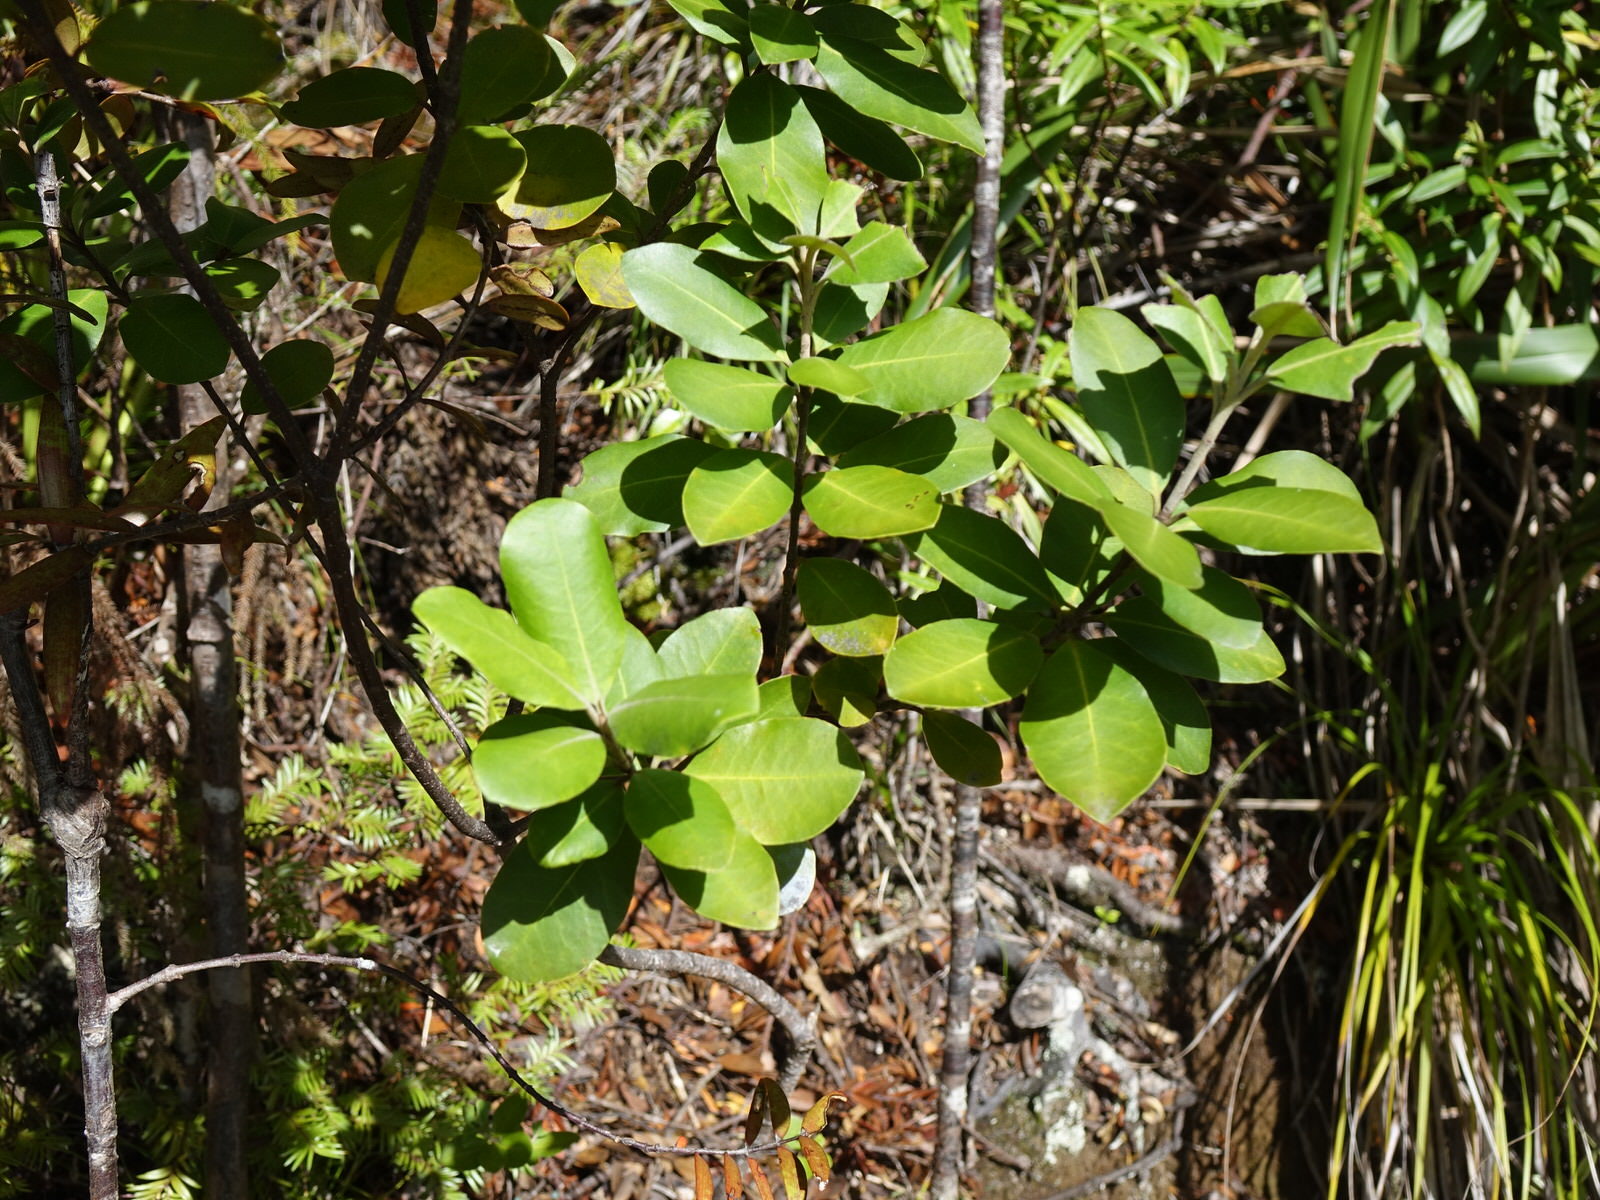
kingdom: Plantae
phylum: Tracheophyta
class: Magnoliopsida
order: Apiales
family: Pittosporaceae
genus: Pittosporum
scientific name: Pittosporum ellipticum
